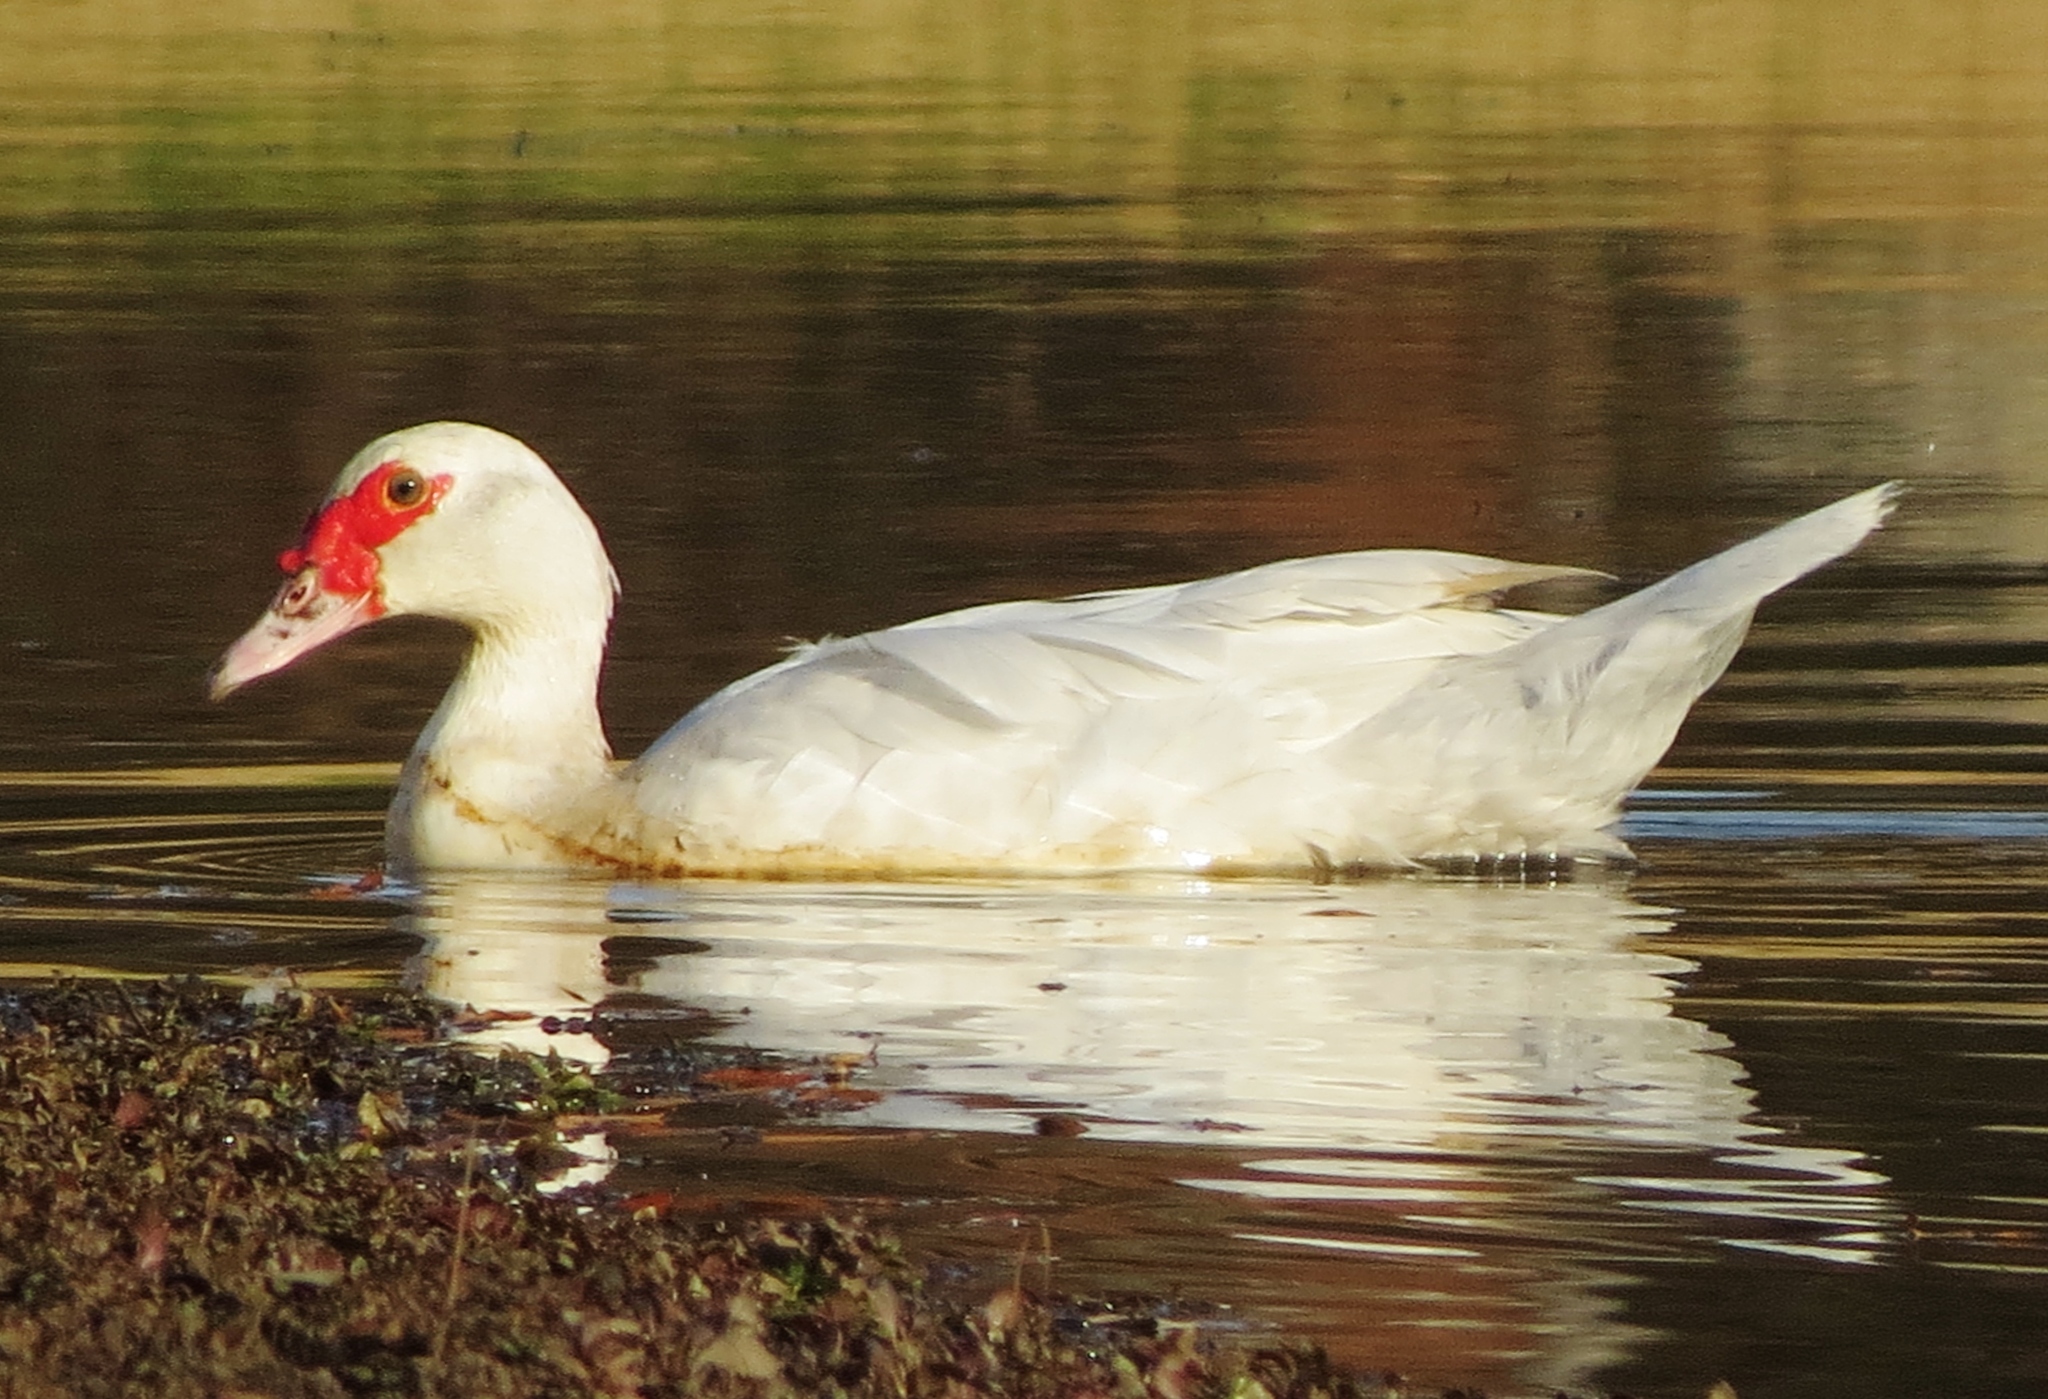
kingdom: Animalia
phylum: Chordata
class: Aves
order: Anseriformes
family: Anatidae
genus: Cairina
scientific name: Cairina moschata
